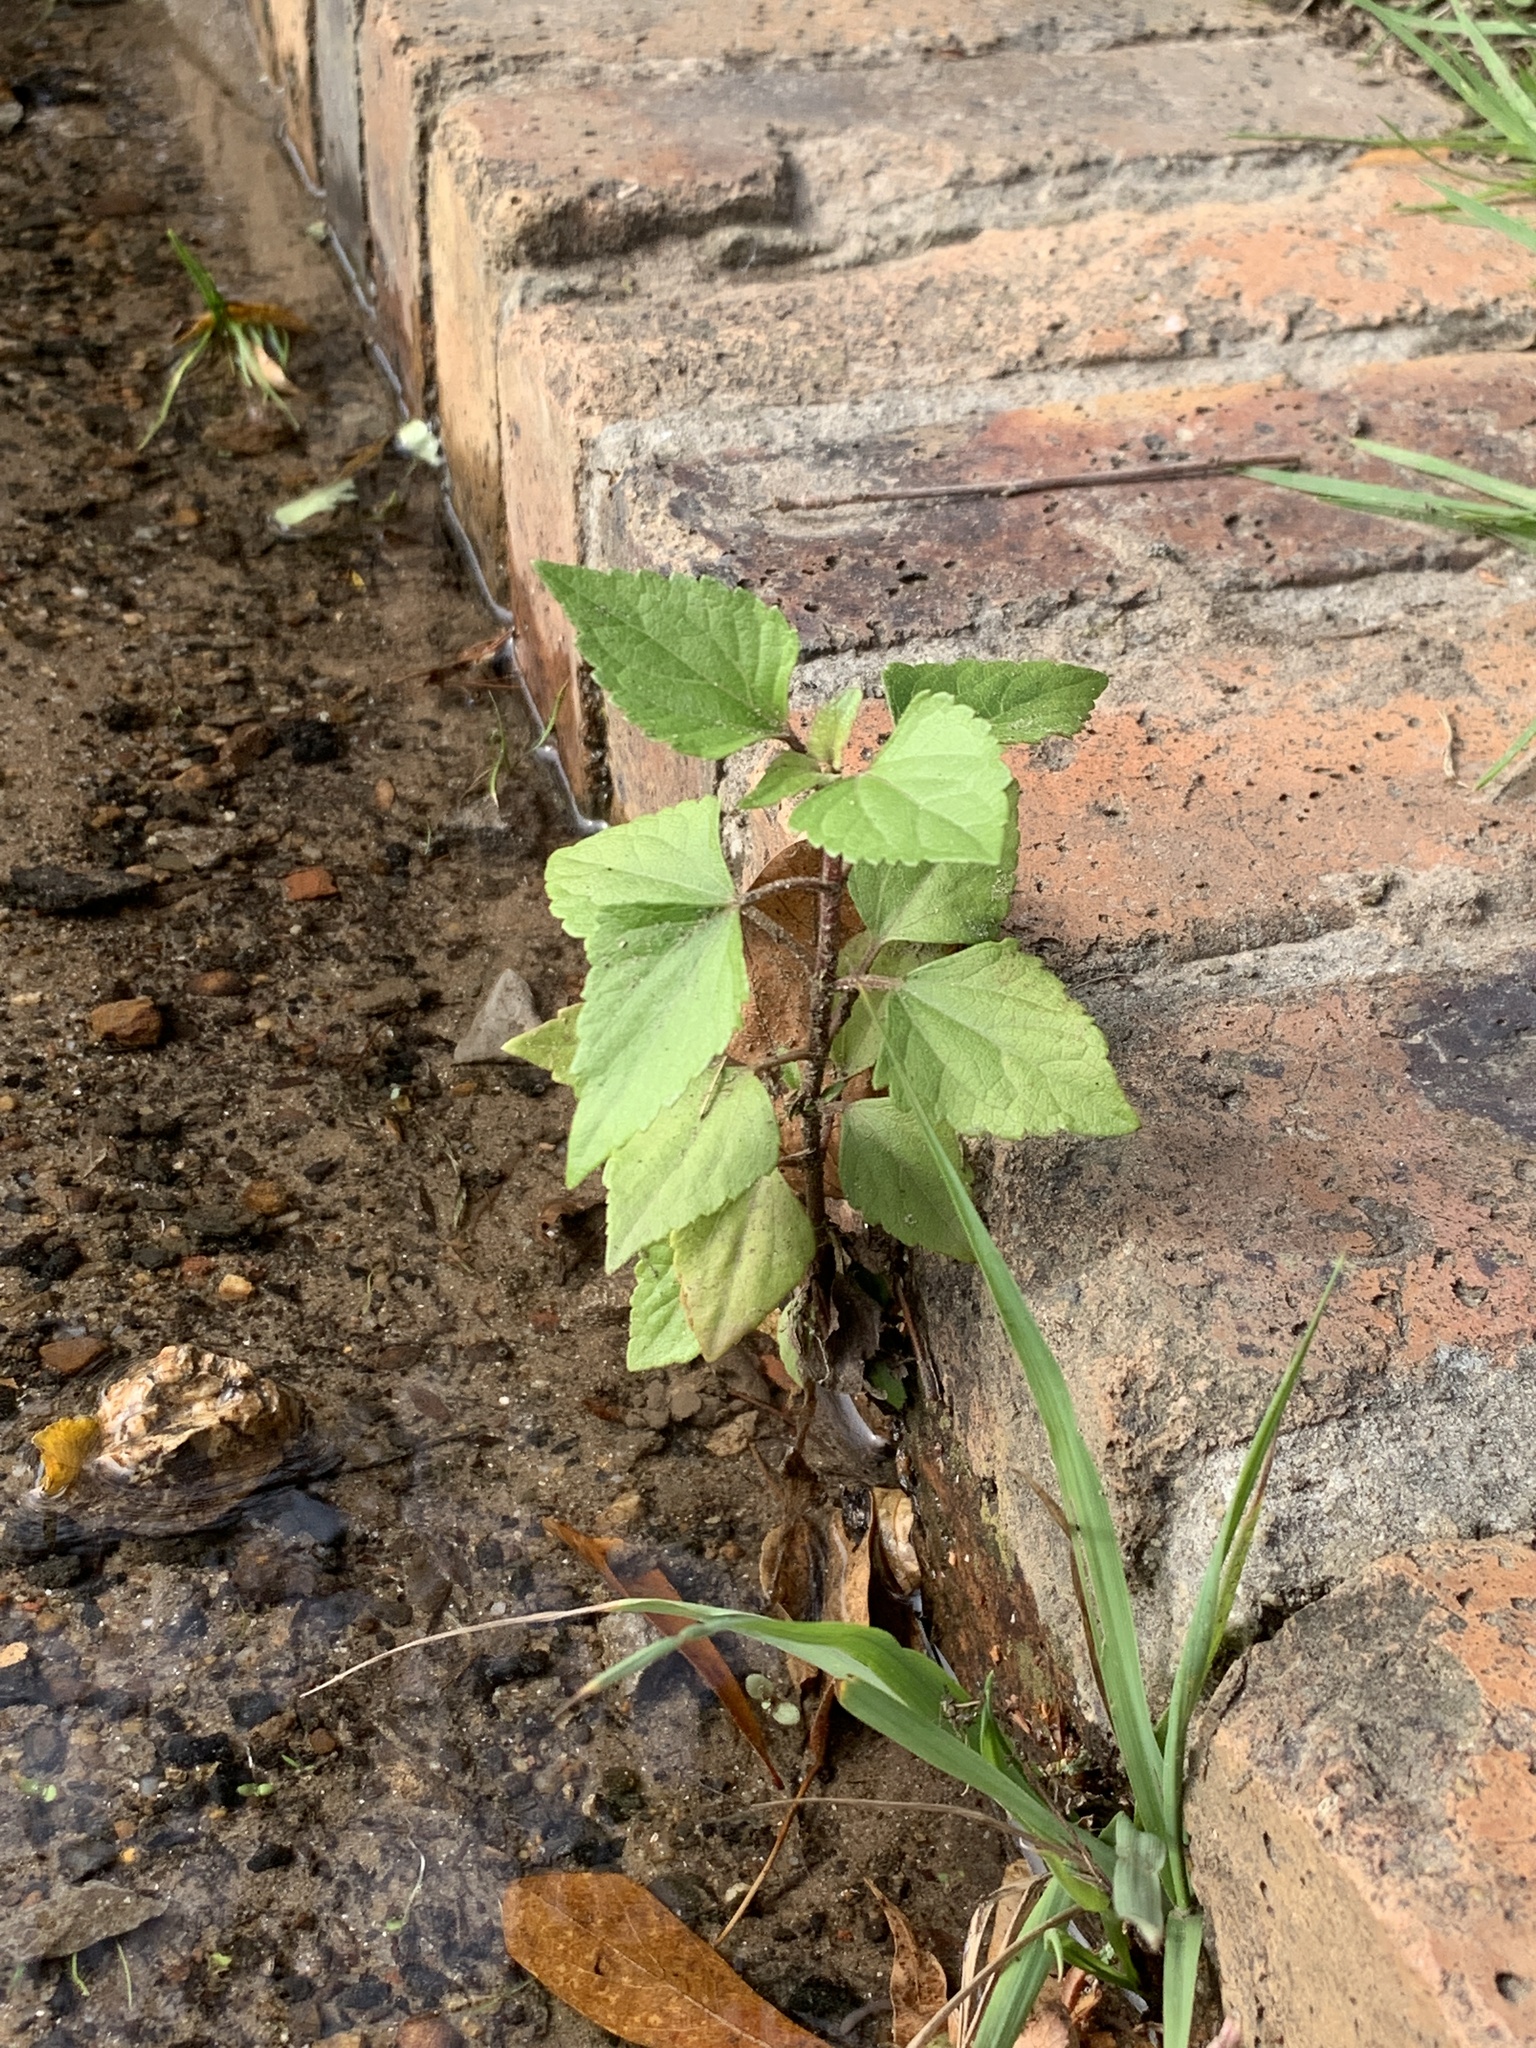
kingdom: Plantae
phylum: Tracheophyta
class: Magnoliopsida
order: Asterales
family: Asteraceae
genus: Ageratina
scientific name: Ageratina adenophora
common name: Sticky snakeroot
